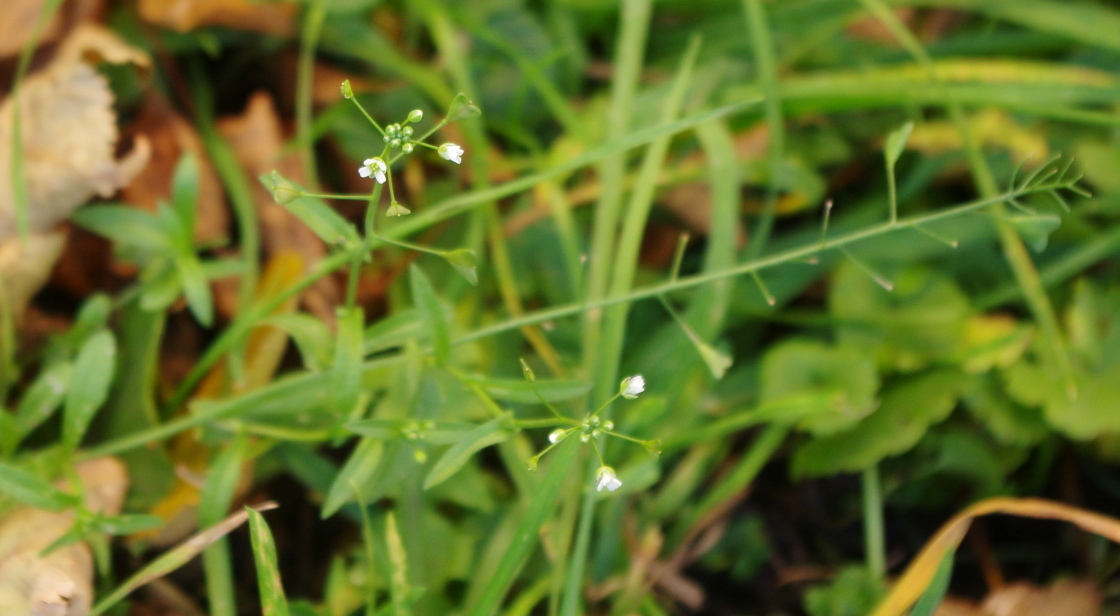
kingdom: Plantae
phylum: Tracheophyta
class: Magnoliopsida
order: Brassicales
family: Brassicaceae
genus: Capsella
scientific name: Capsella bursa-pastoris
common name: Shepherd's purse
